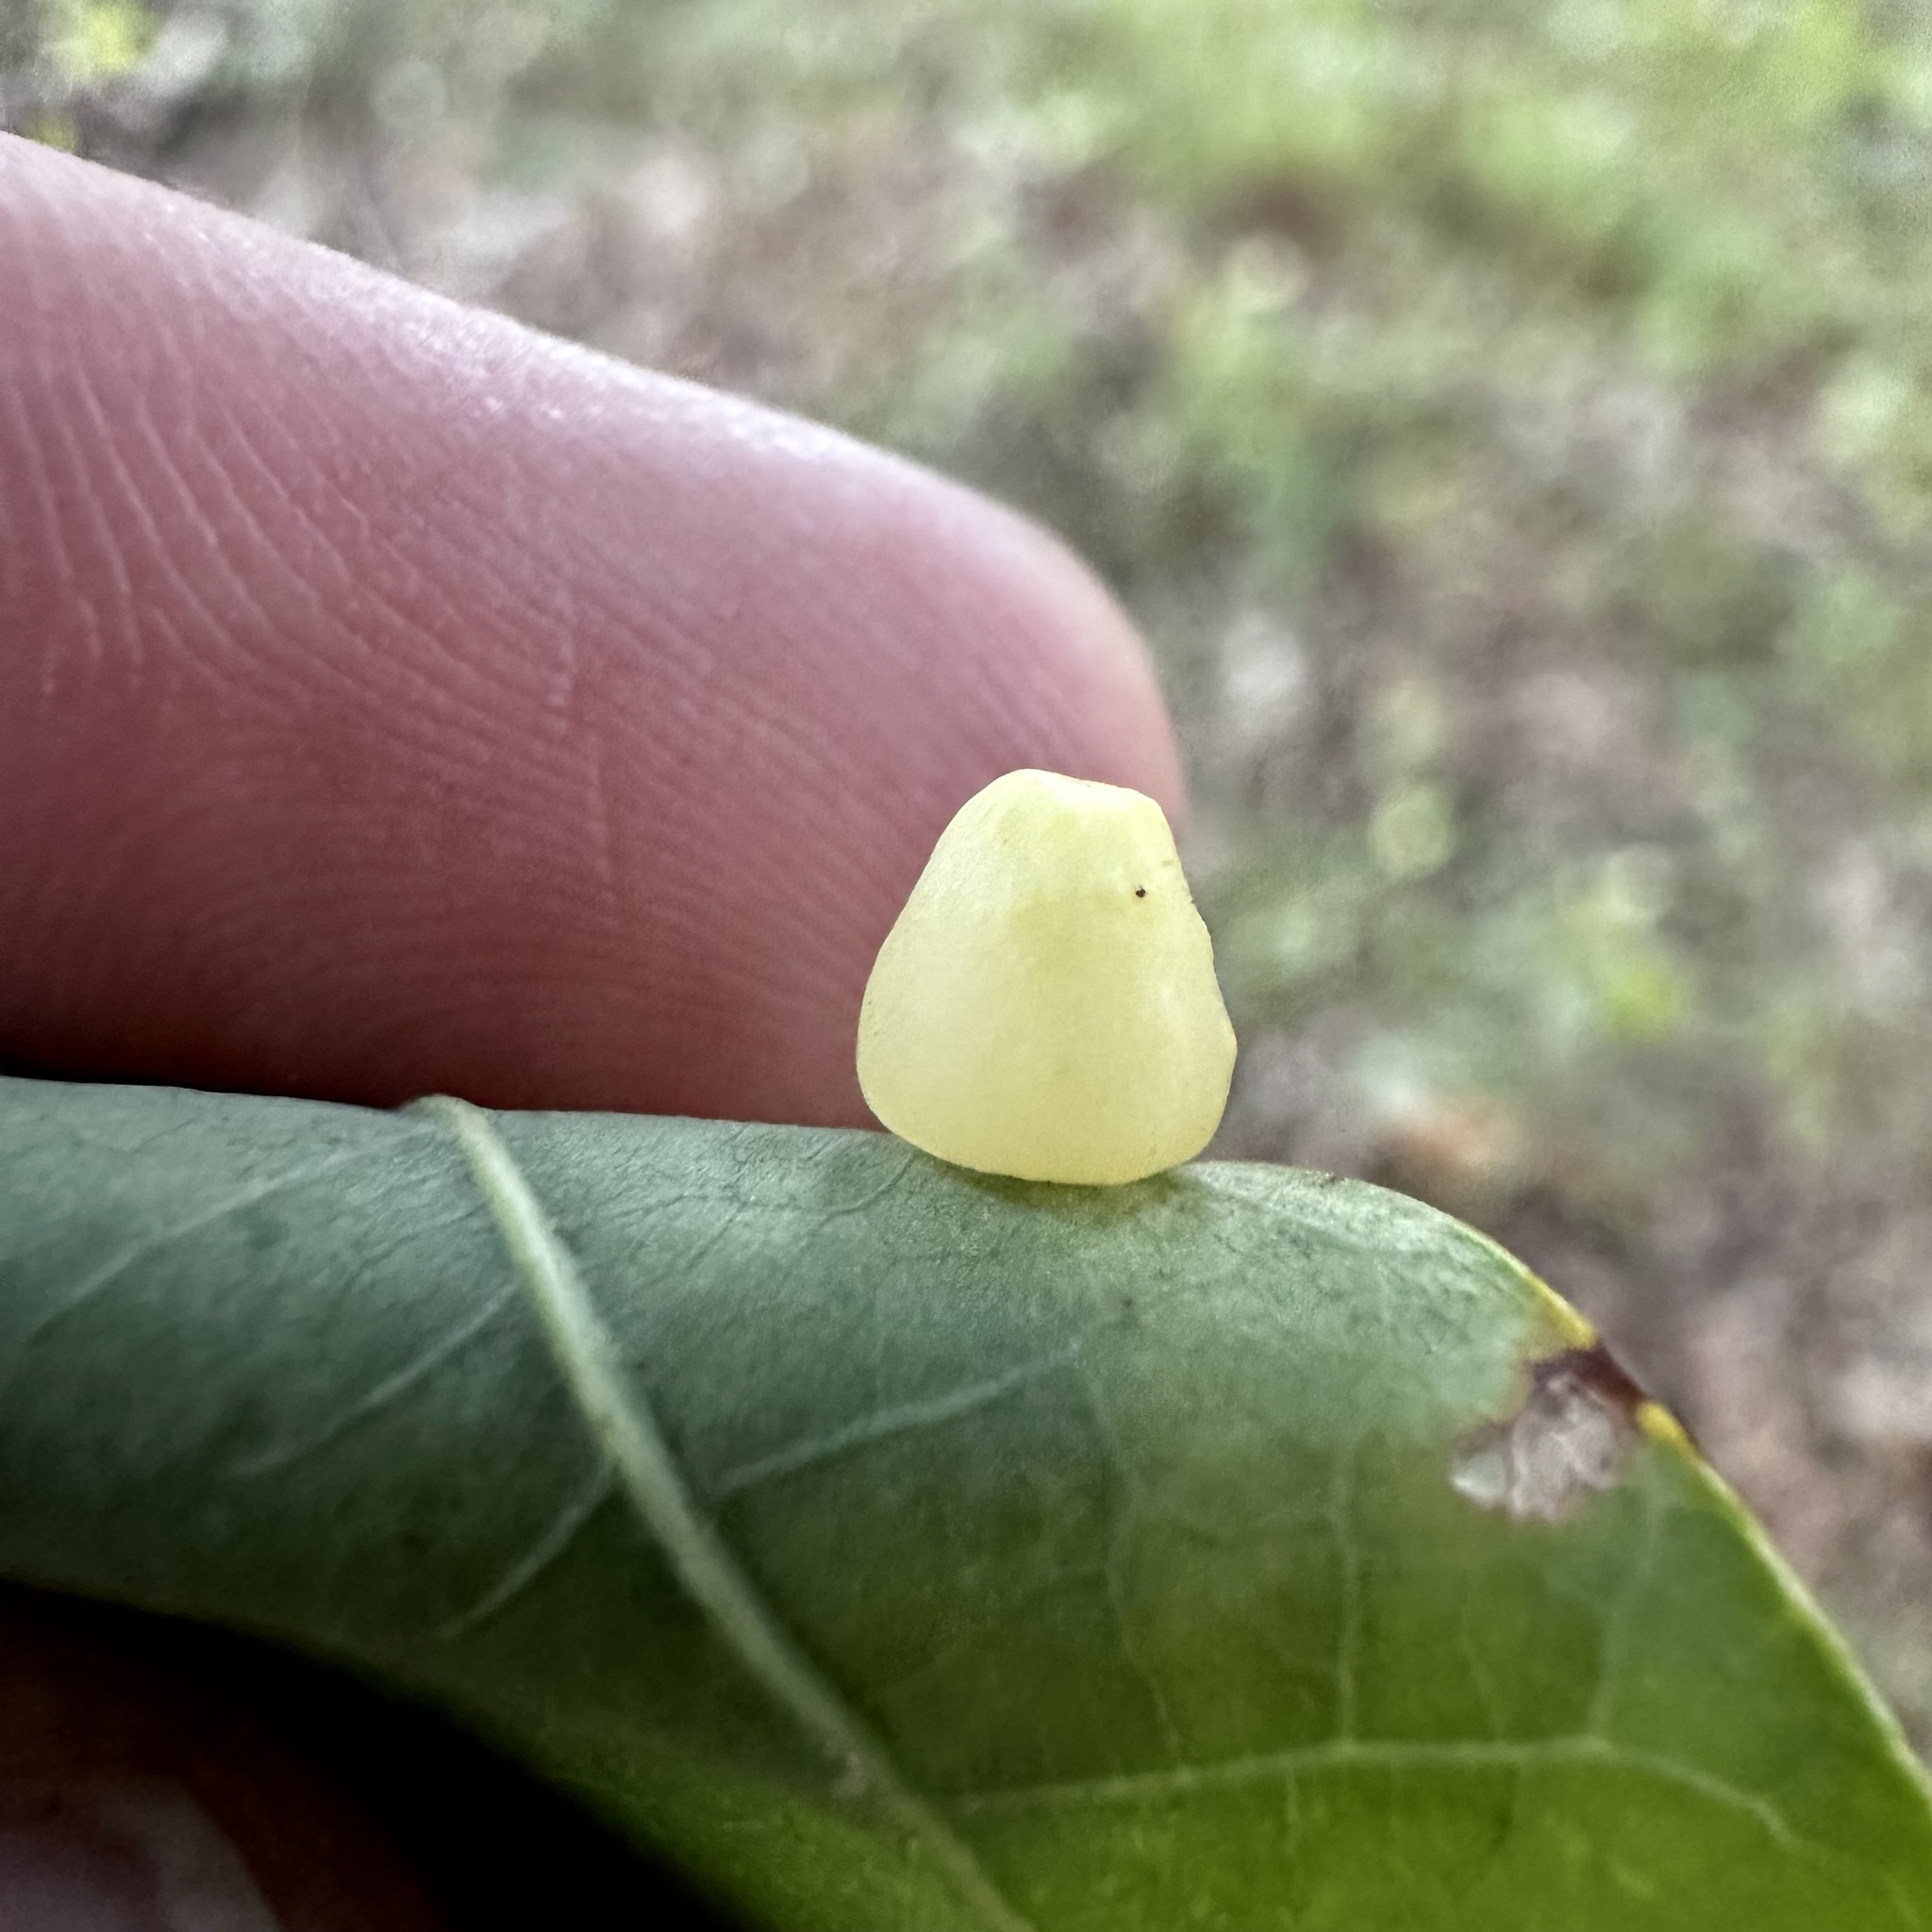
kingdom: Animalia
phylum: Arthropoda
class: Insecta
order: Hymenoptera
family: Cynipidae
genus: Andricus
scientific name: Andricus
